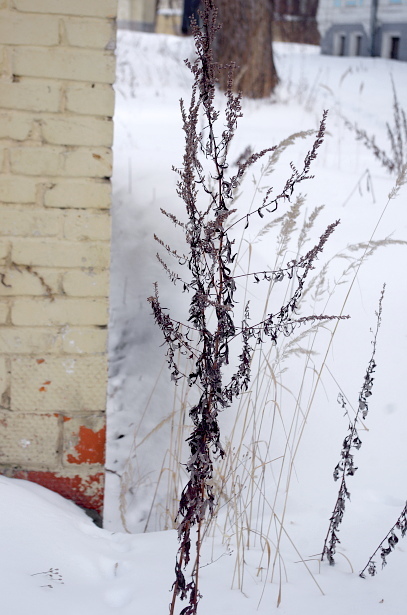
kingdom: Plantae
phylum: Tracheophyta
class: Magnoliopsida
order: Asterales
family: Asteraceae
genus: Artemisia
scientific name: Artemisia vulgaris
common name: Mugwort
